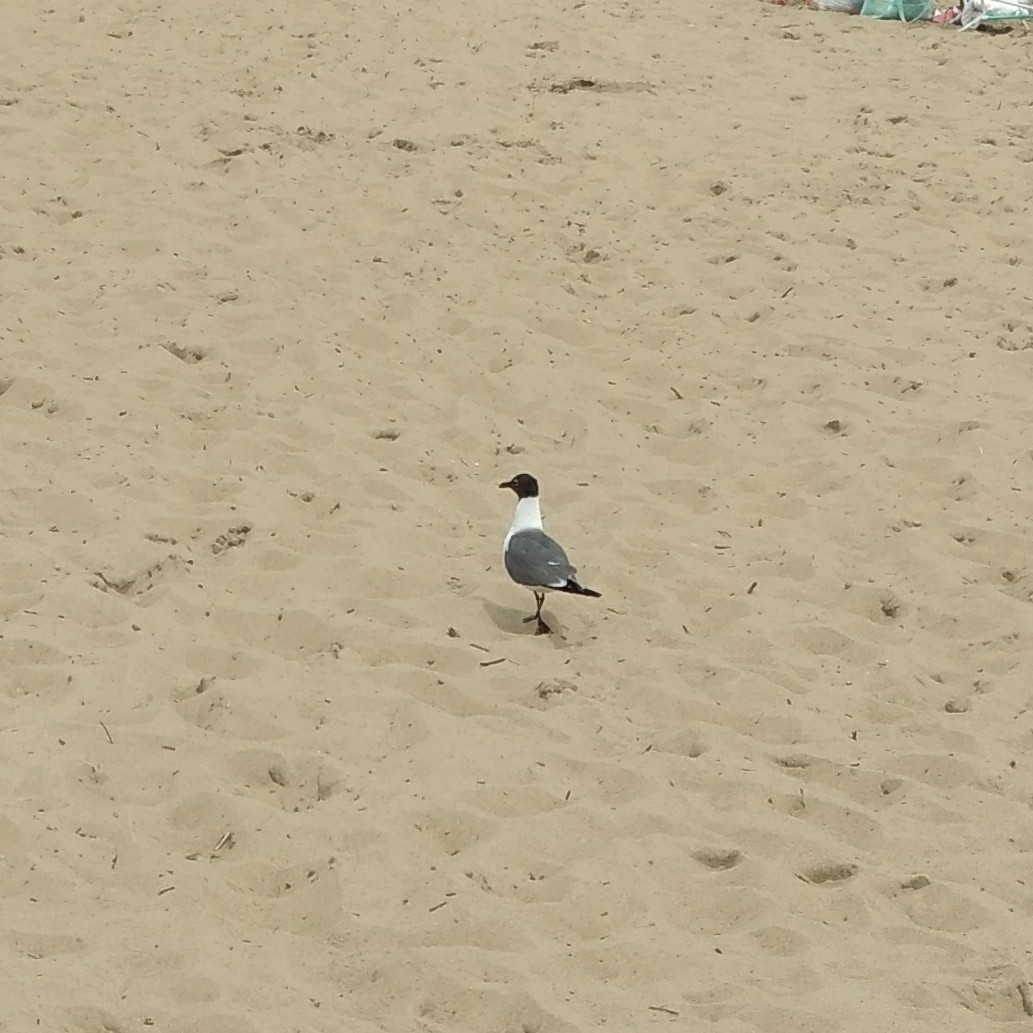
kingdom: Animalia
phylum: Chordata
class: Aves
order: Charadriiformes
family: Laridae
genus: Leucophaeus
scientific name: Leucophaeus atricilla
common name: Laughing gull
